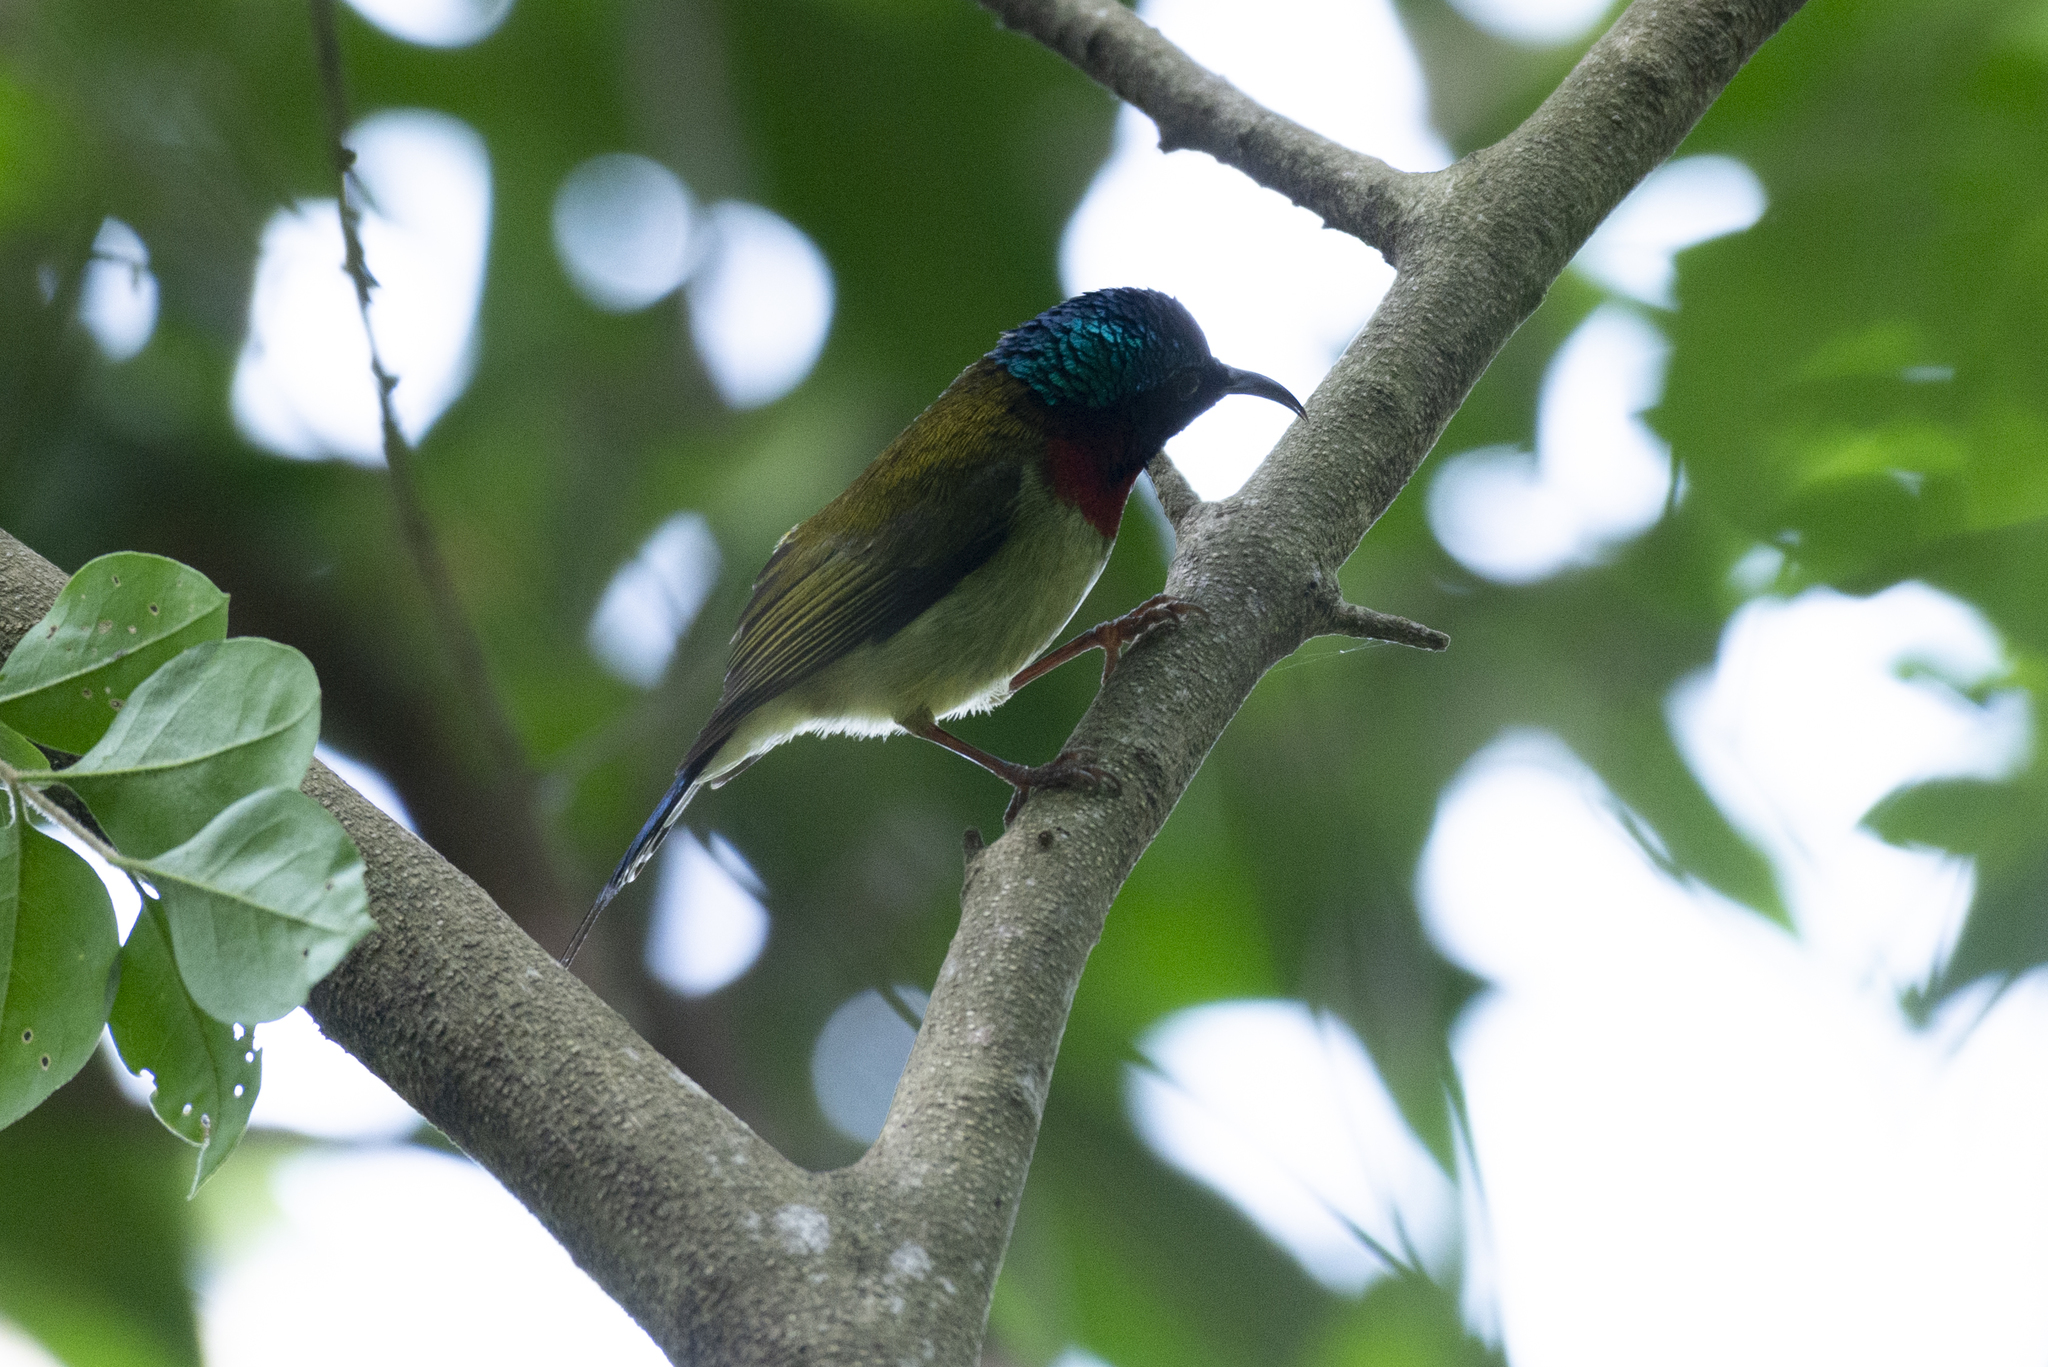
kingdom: Animalia
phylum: Chordata
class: Aves
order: Passeriformes
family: Nectariniidae
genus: Aethopyga
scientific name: Aethopyga christinae
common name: Fork-tailed sunbird
